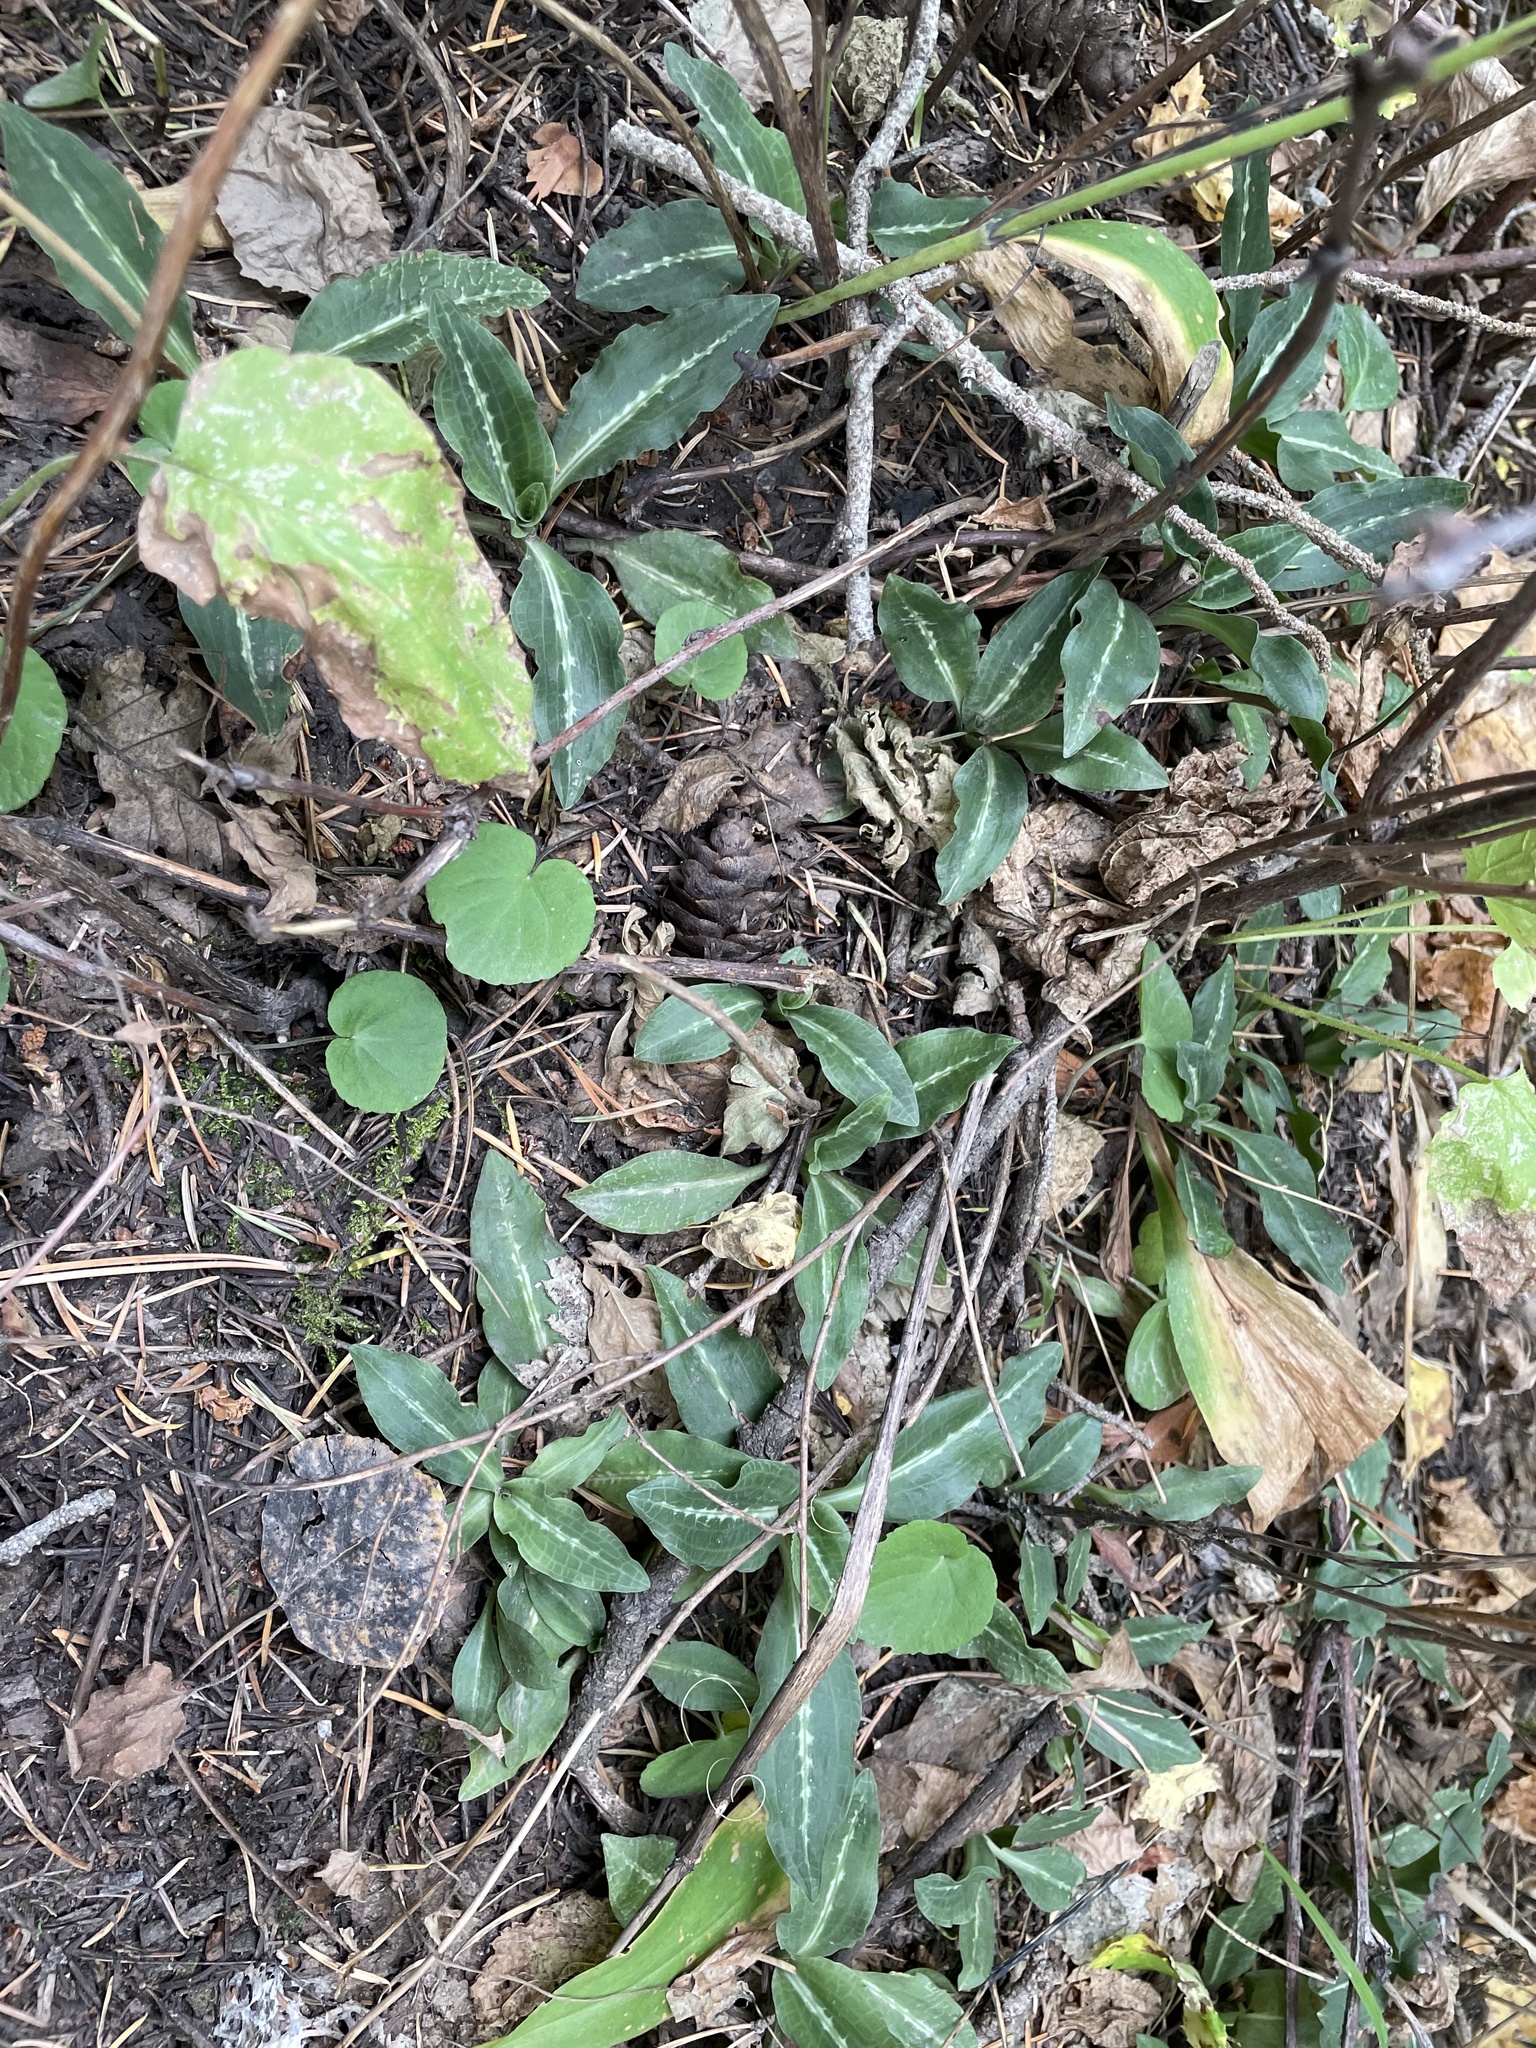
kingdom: Plantae
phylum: Tracheophyta
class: Liliopsida
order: Asparagales
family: Orchidaceae
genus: Goodyera
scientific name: Goodyera oblongifolia
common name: Giant rattlesnake-plantain
